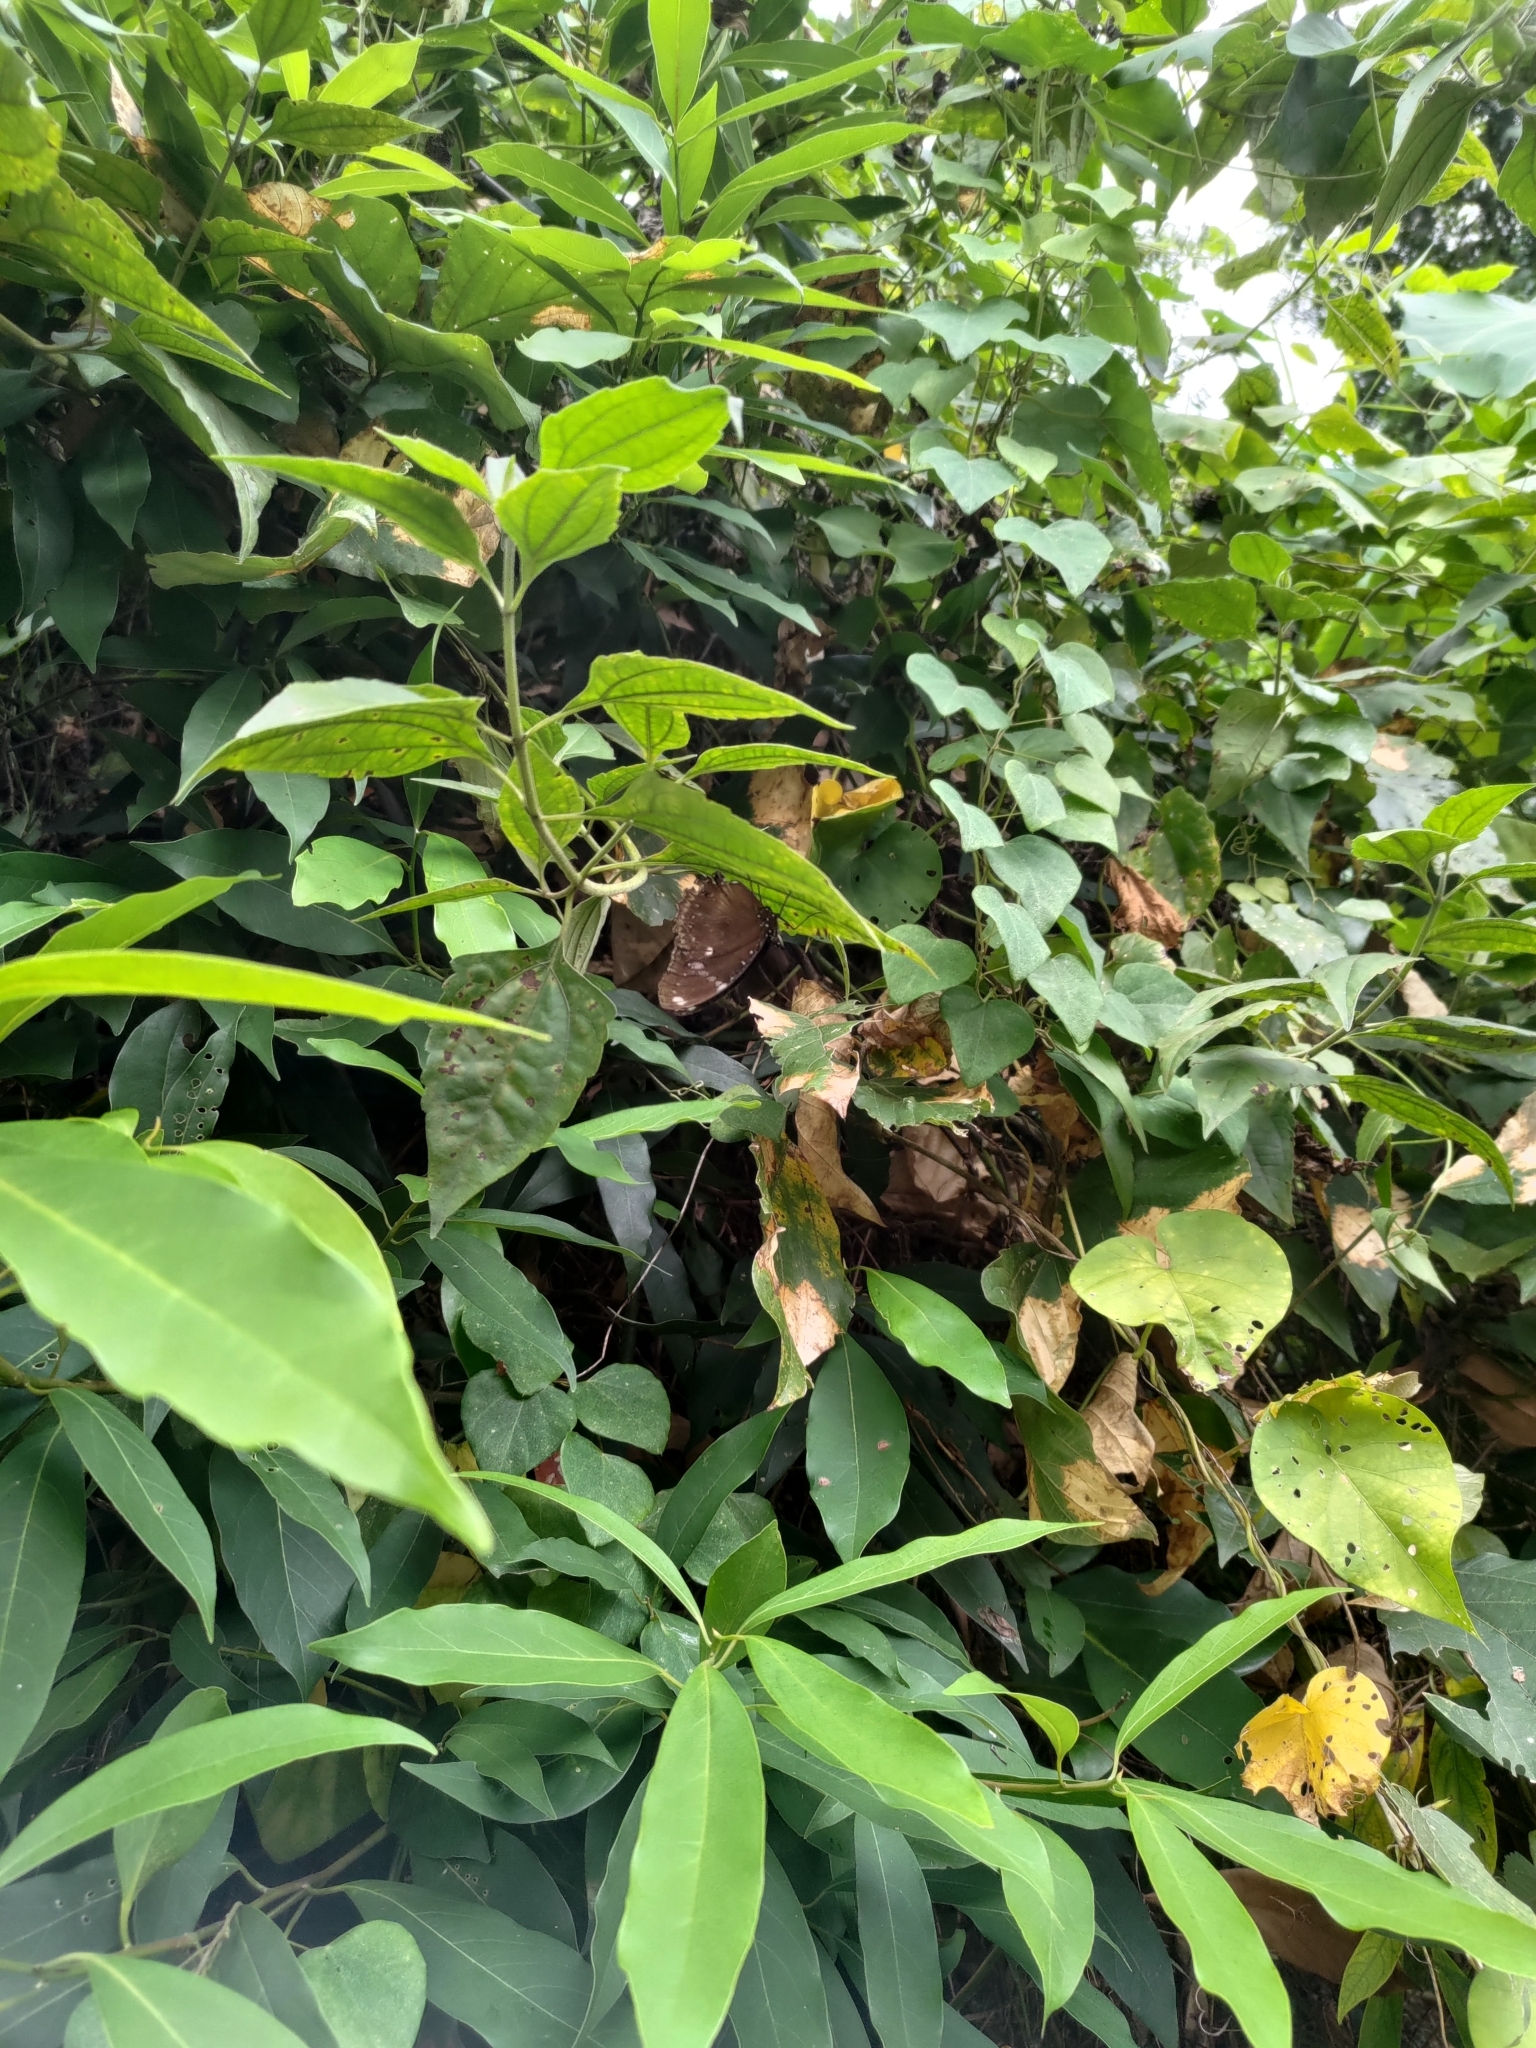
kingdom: Animalia
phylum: Arthropoda
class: Insecta
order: Lepidoptera
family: Nymphalidae
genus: Hypolimnas
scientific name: Hypolimnas bolina
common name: Great eggfly
